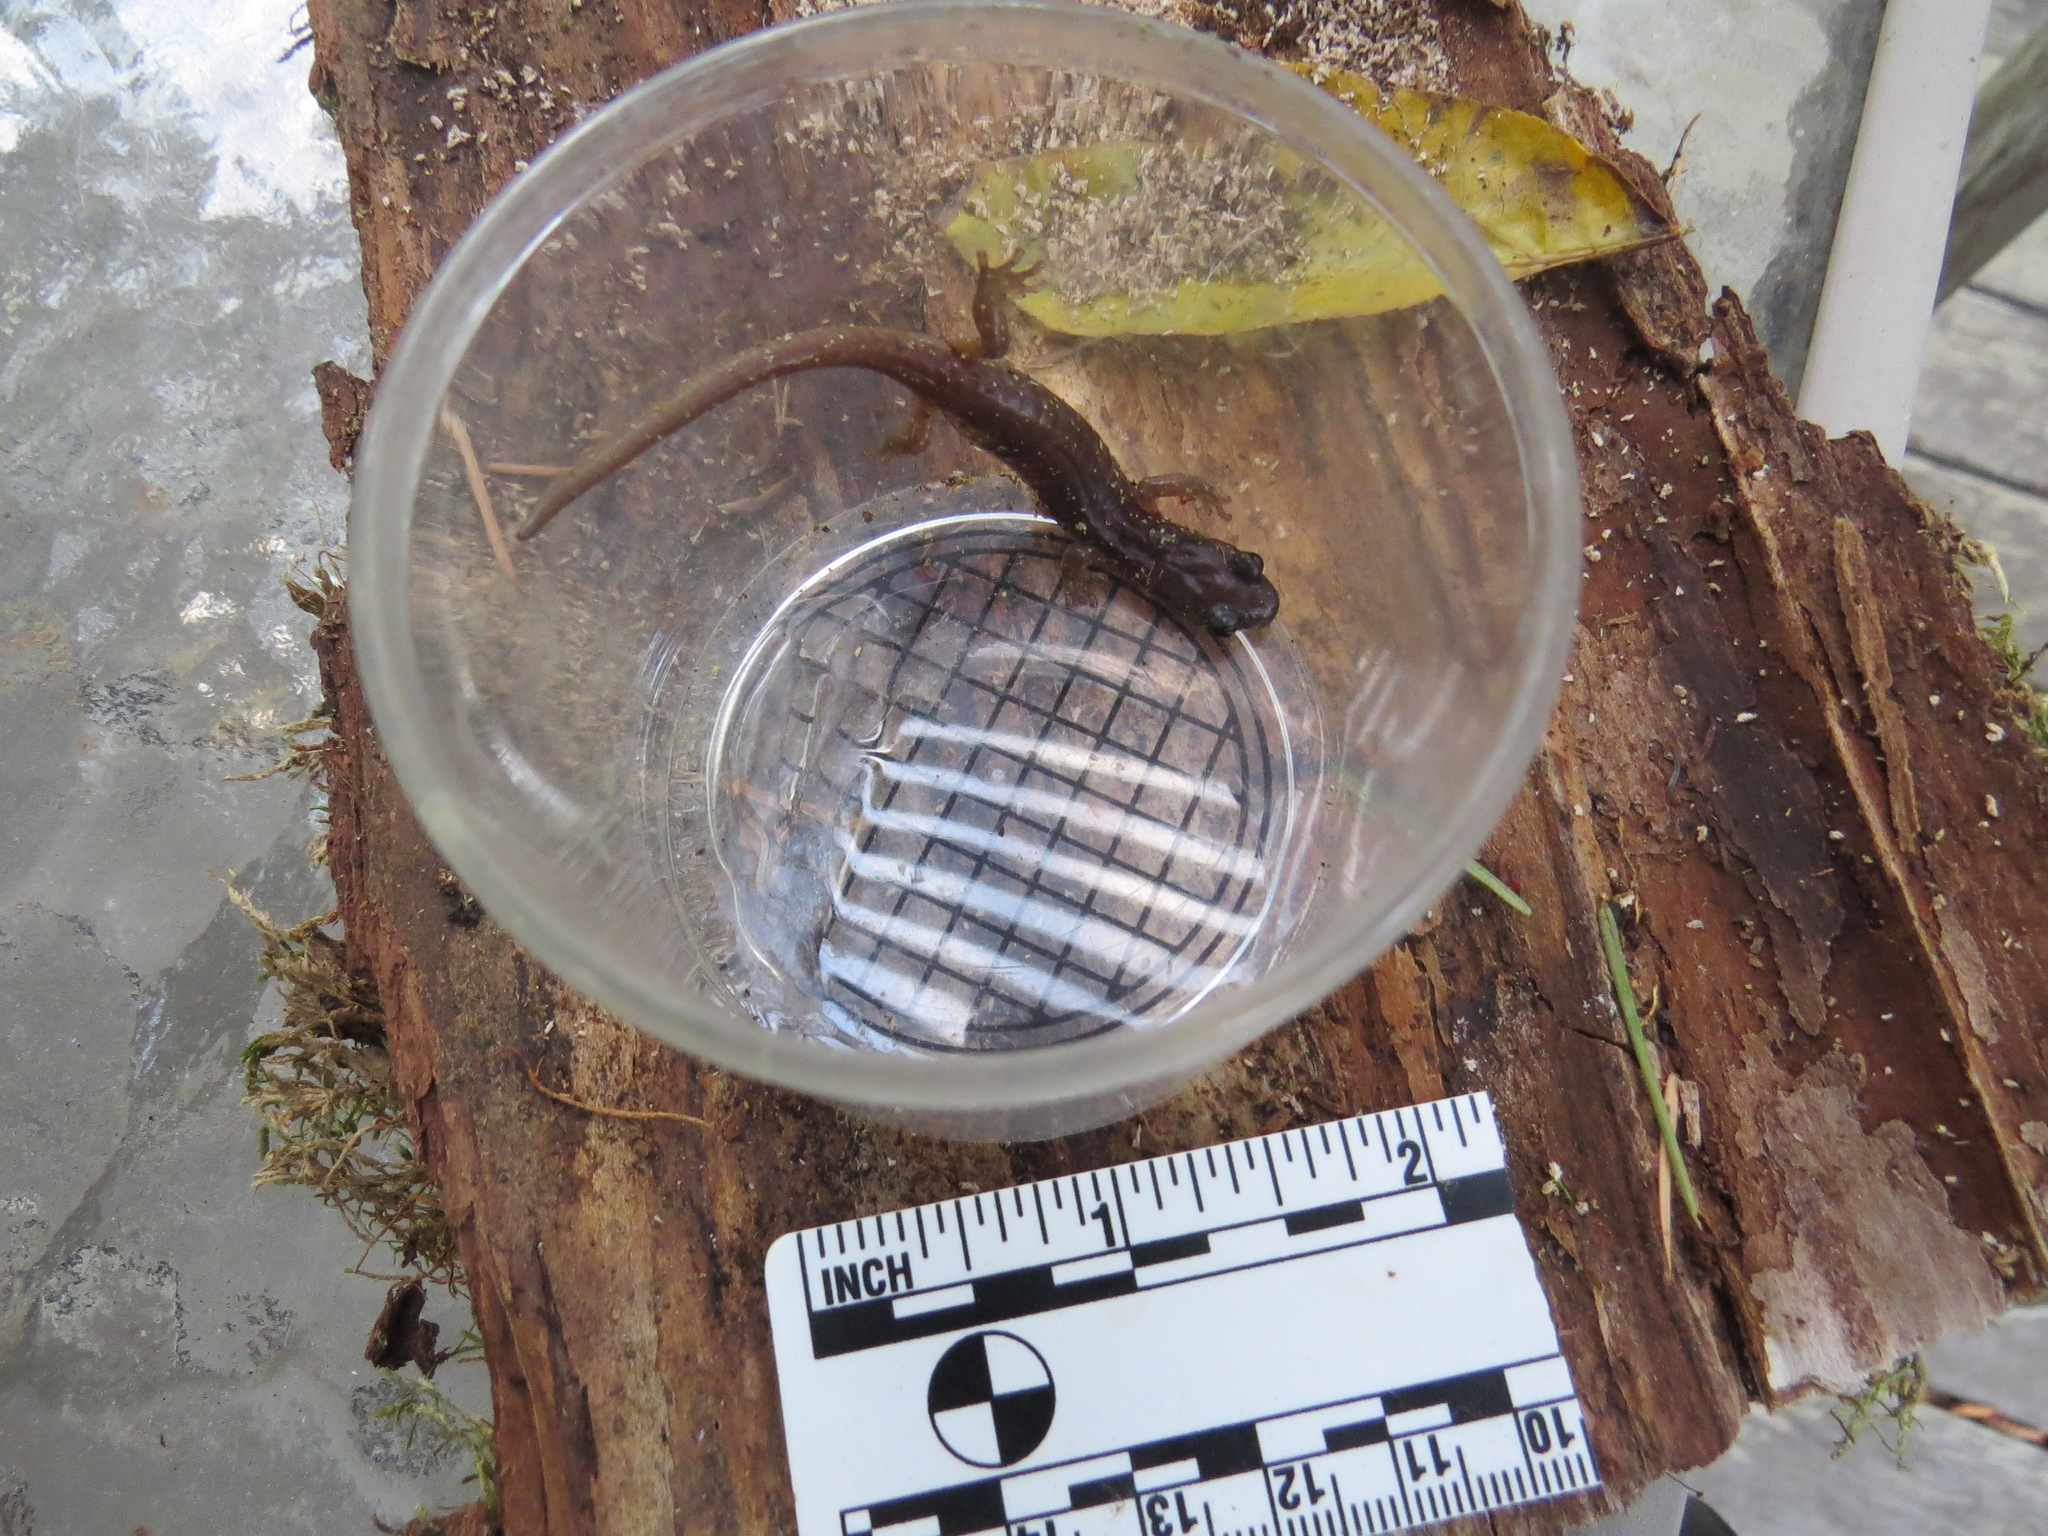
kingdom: Animalia
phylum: Chordata
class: Amphibia
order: Caudata
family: Plethodontidae
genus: Aneides
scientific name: Aneides lugubris
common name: Arboreal salamander
